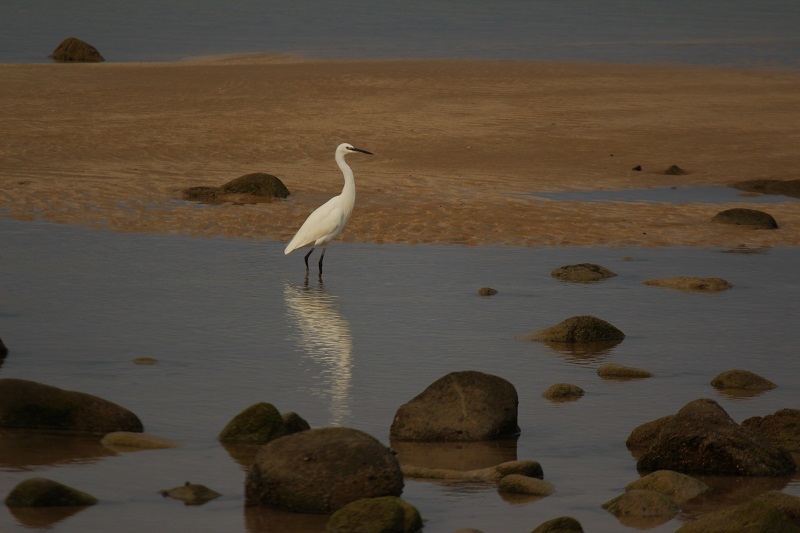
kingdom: Animalia
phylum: Chordata
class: Aves
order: Pelecaniformes
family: Ardeidae
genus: Egretta
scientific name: Egretta garzetta
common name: Little egret
